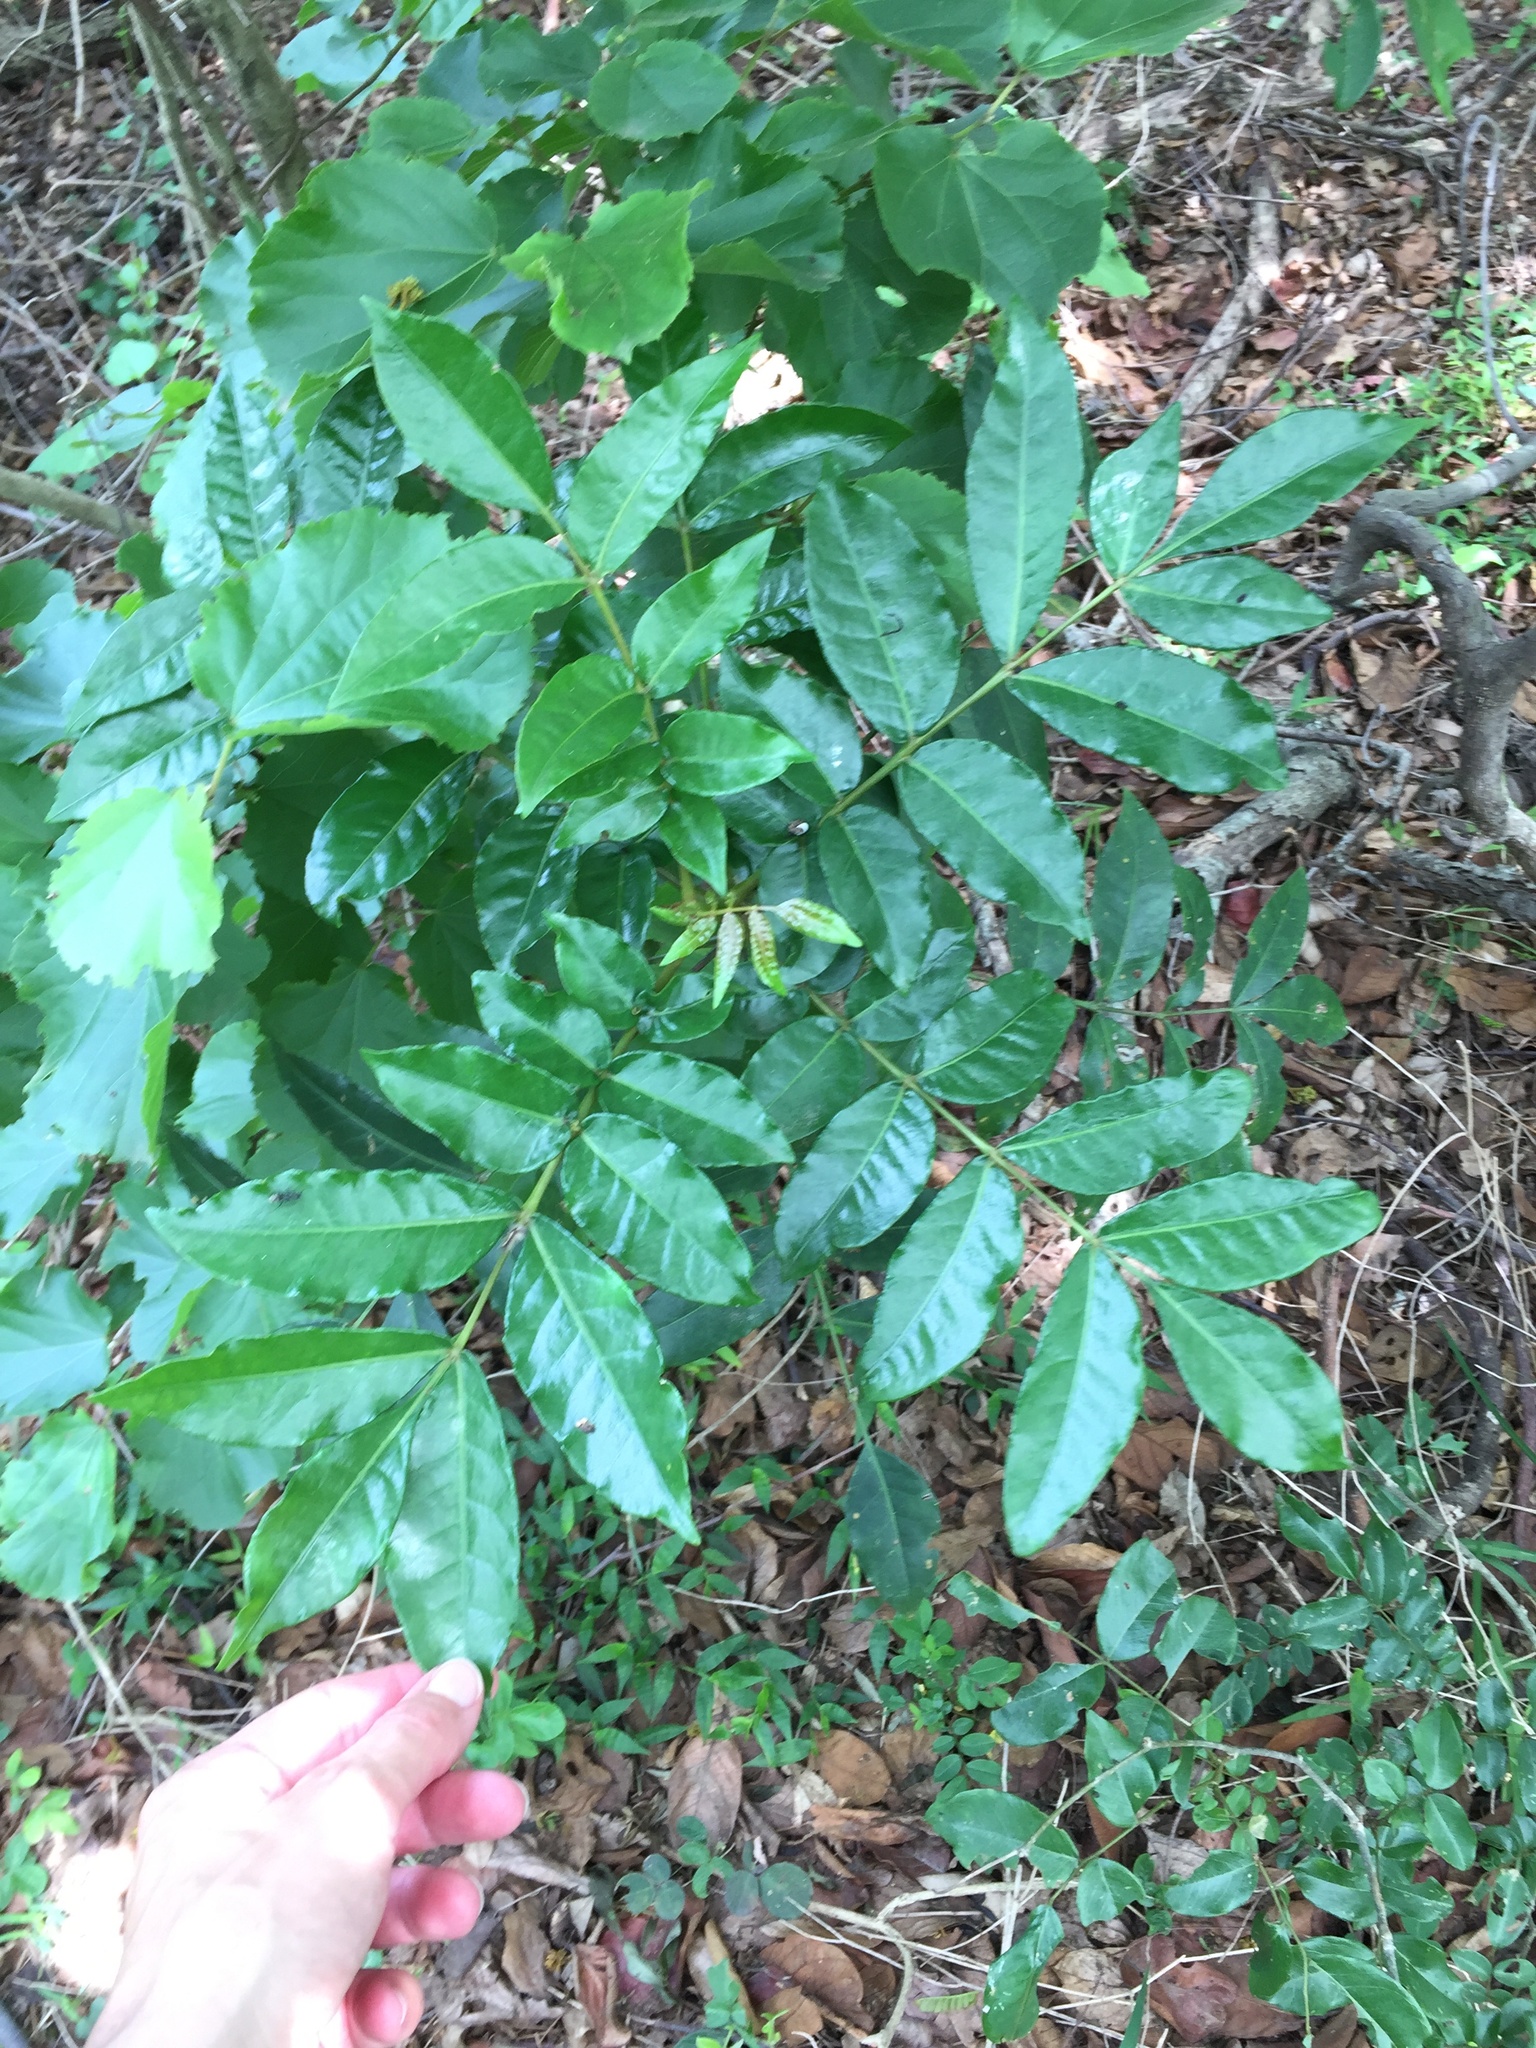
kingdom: Plantae
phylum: Tracheophyta
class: Magnoliopsida
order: Sapindales
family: Anacardiaceae
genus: Harpephyllum
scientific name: Harpephyllum caffrum
